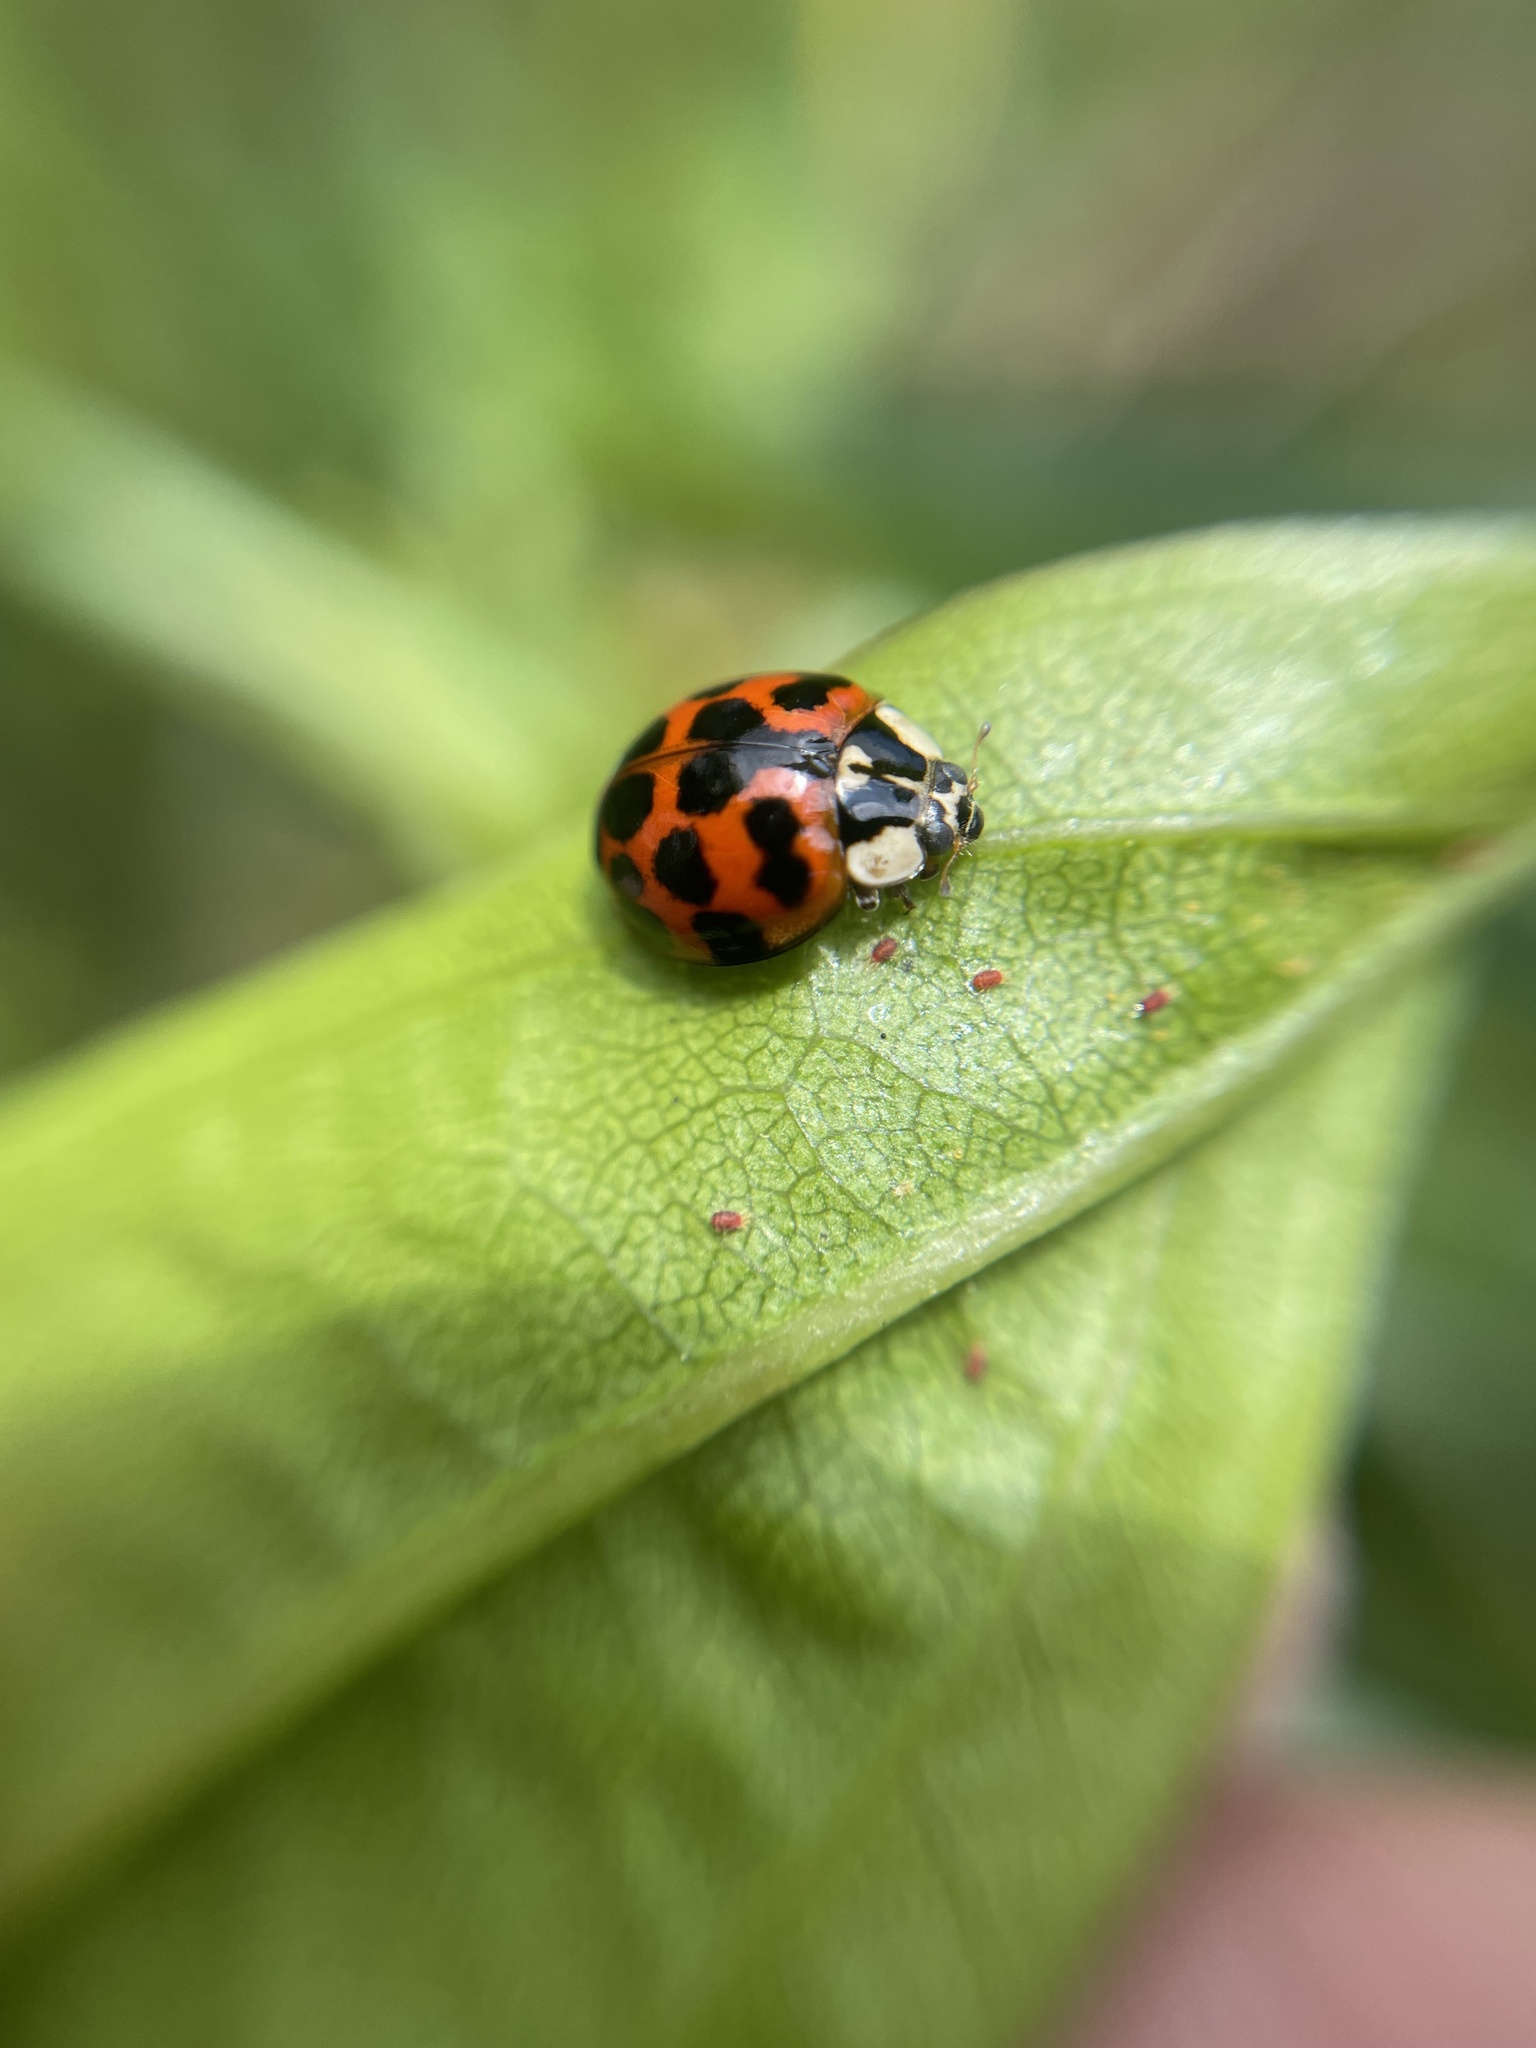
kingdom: Animalia
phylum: Arthropoda
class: Insecta
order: Coleoptera
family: Coccinellidae
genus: Harmonia
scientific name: Harmonia axyridis
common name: Harlequin ladybird
